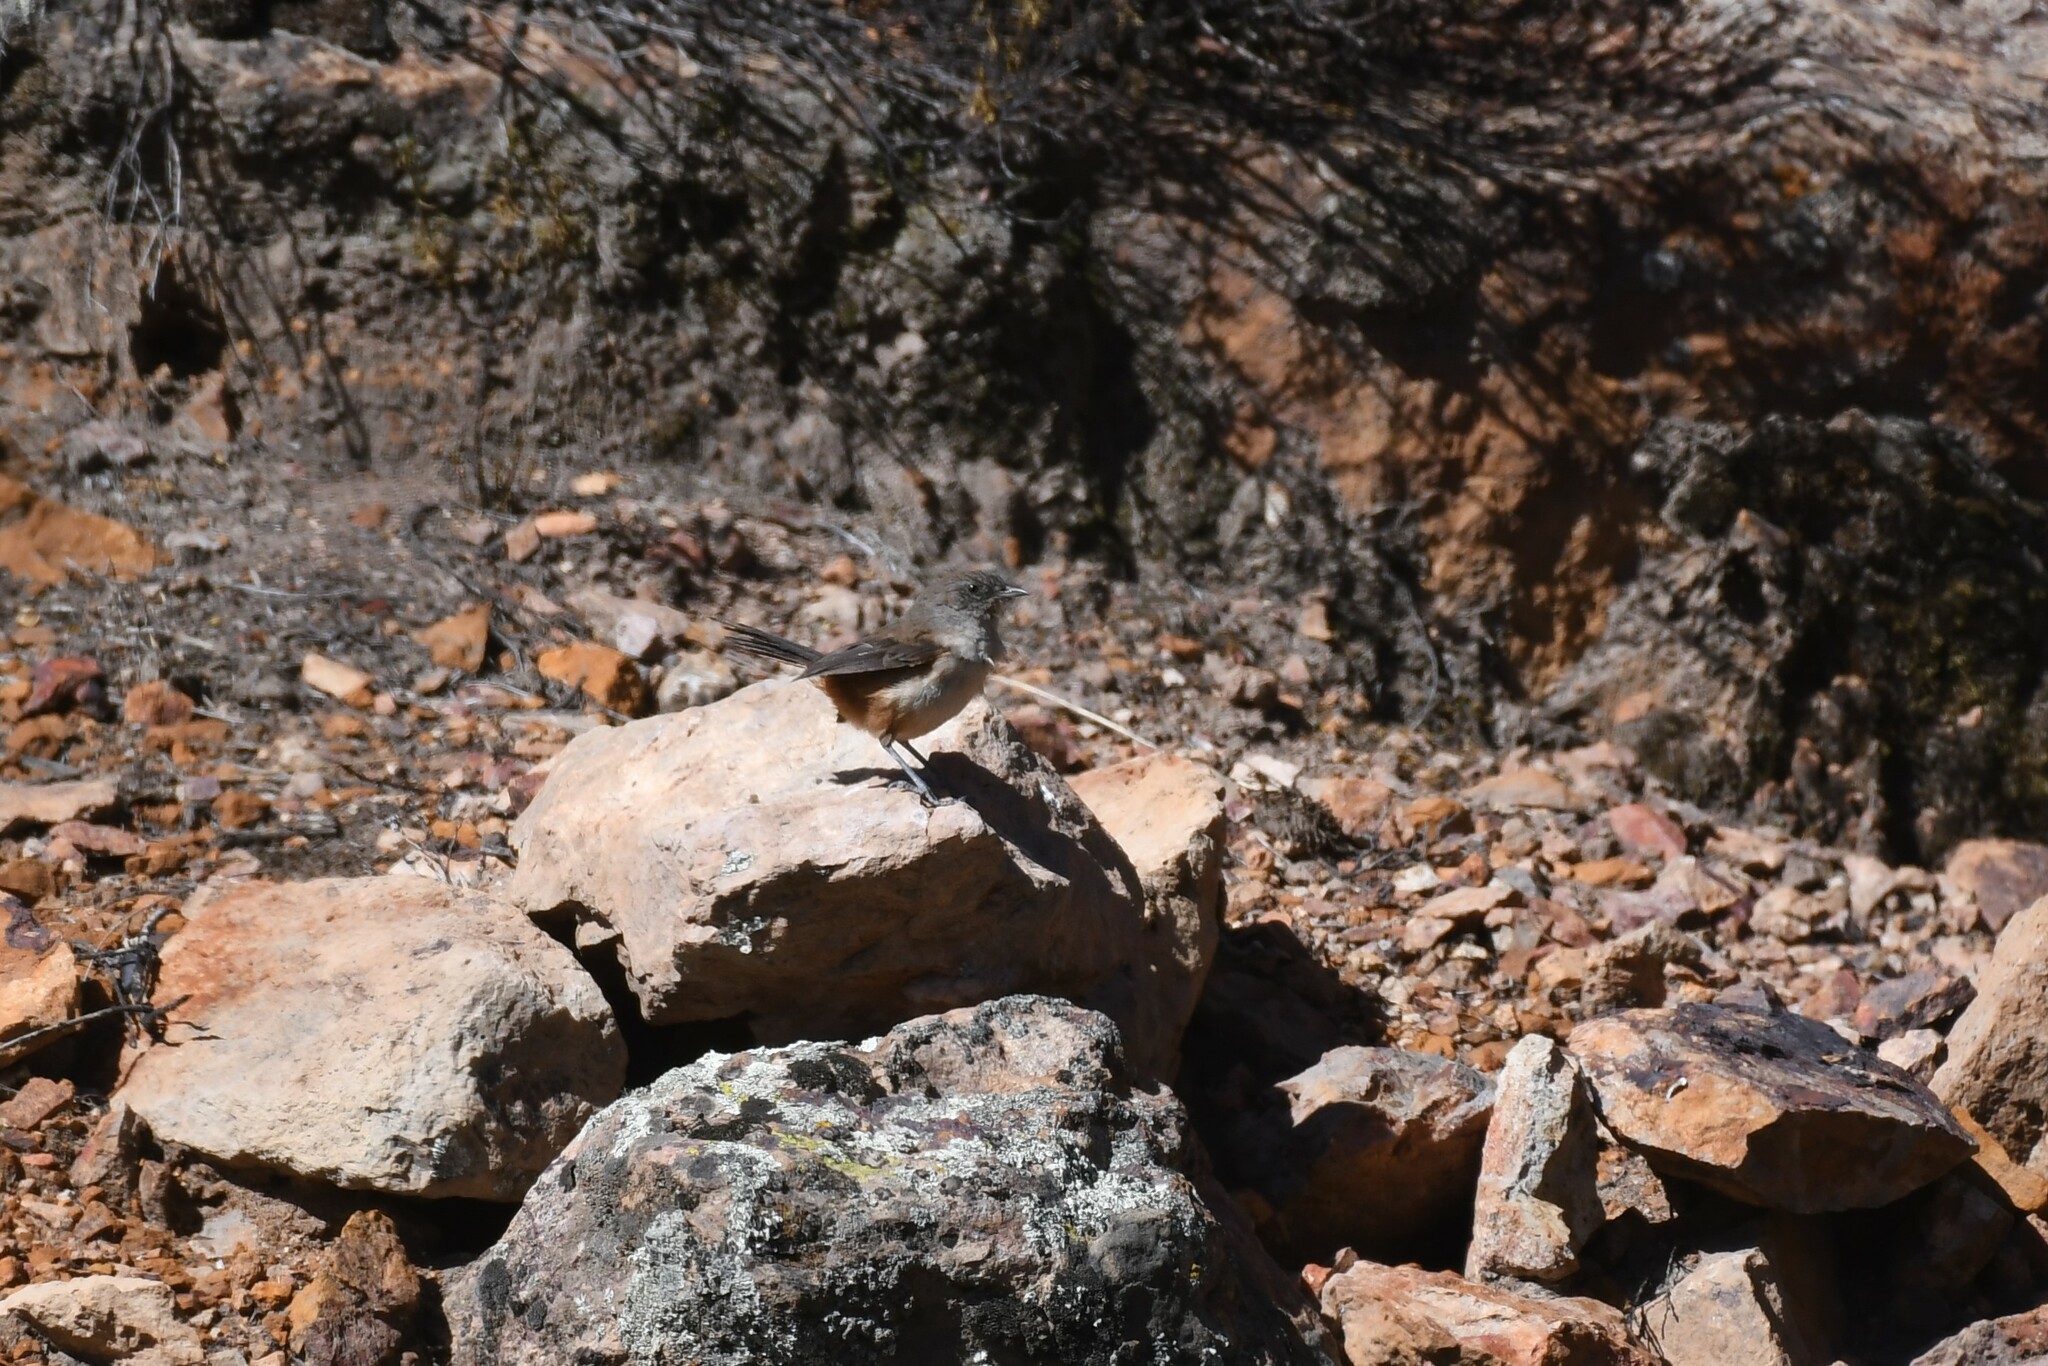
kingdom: Animalia
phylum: Chordata
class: Aves
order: Passeriformes
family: Furnariidae
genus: Asthenes
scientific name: Asthenes dorbignyi
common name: Rusty-vented canastero
